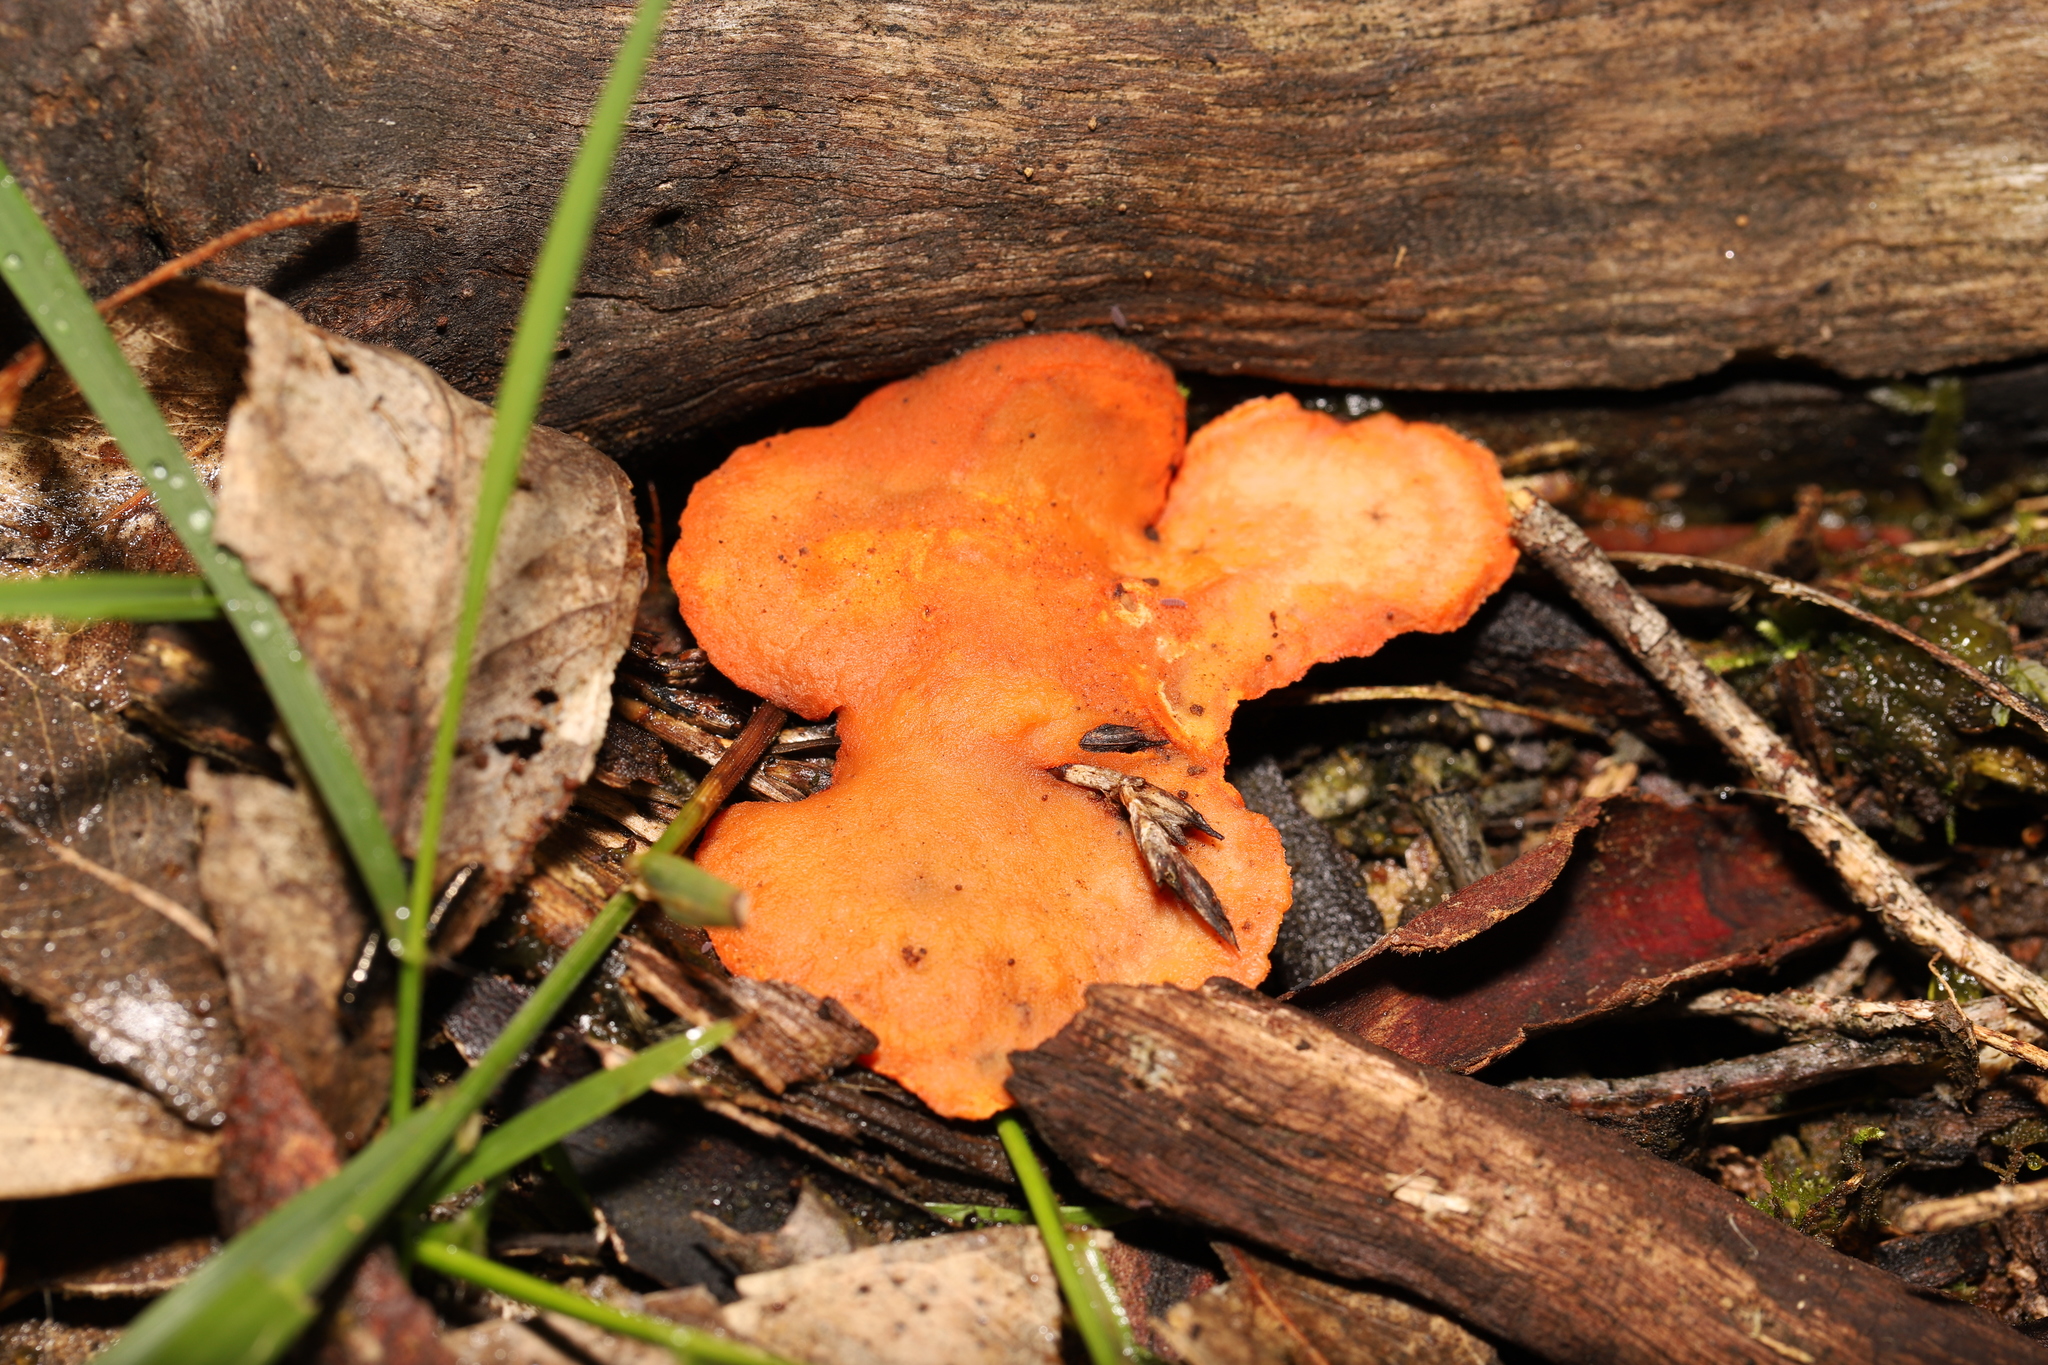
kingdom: Fungi
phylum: Basidiomycota
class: Agaricomycetes
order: Polyporales
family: Polyporaceae
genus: Trametes
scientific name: Trametes coccinea
